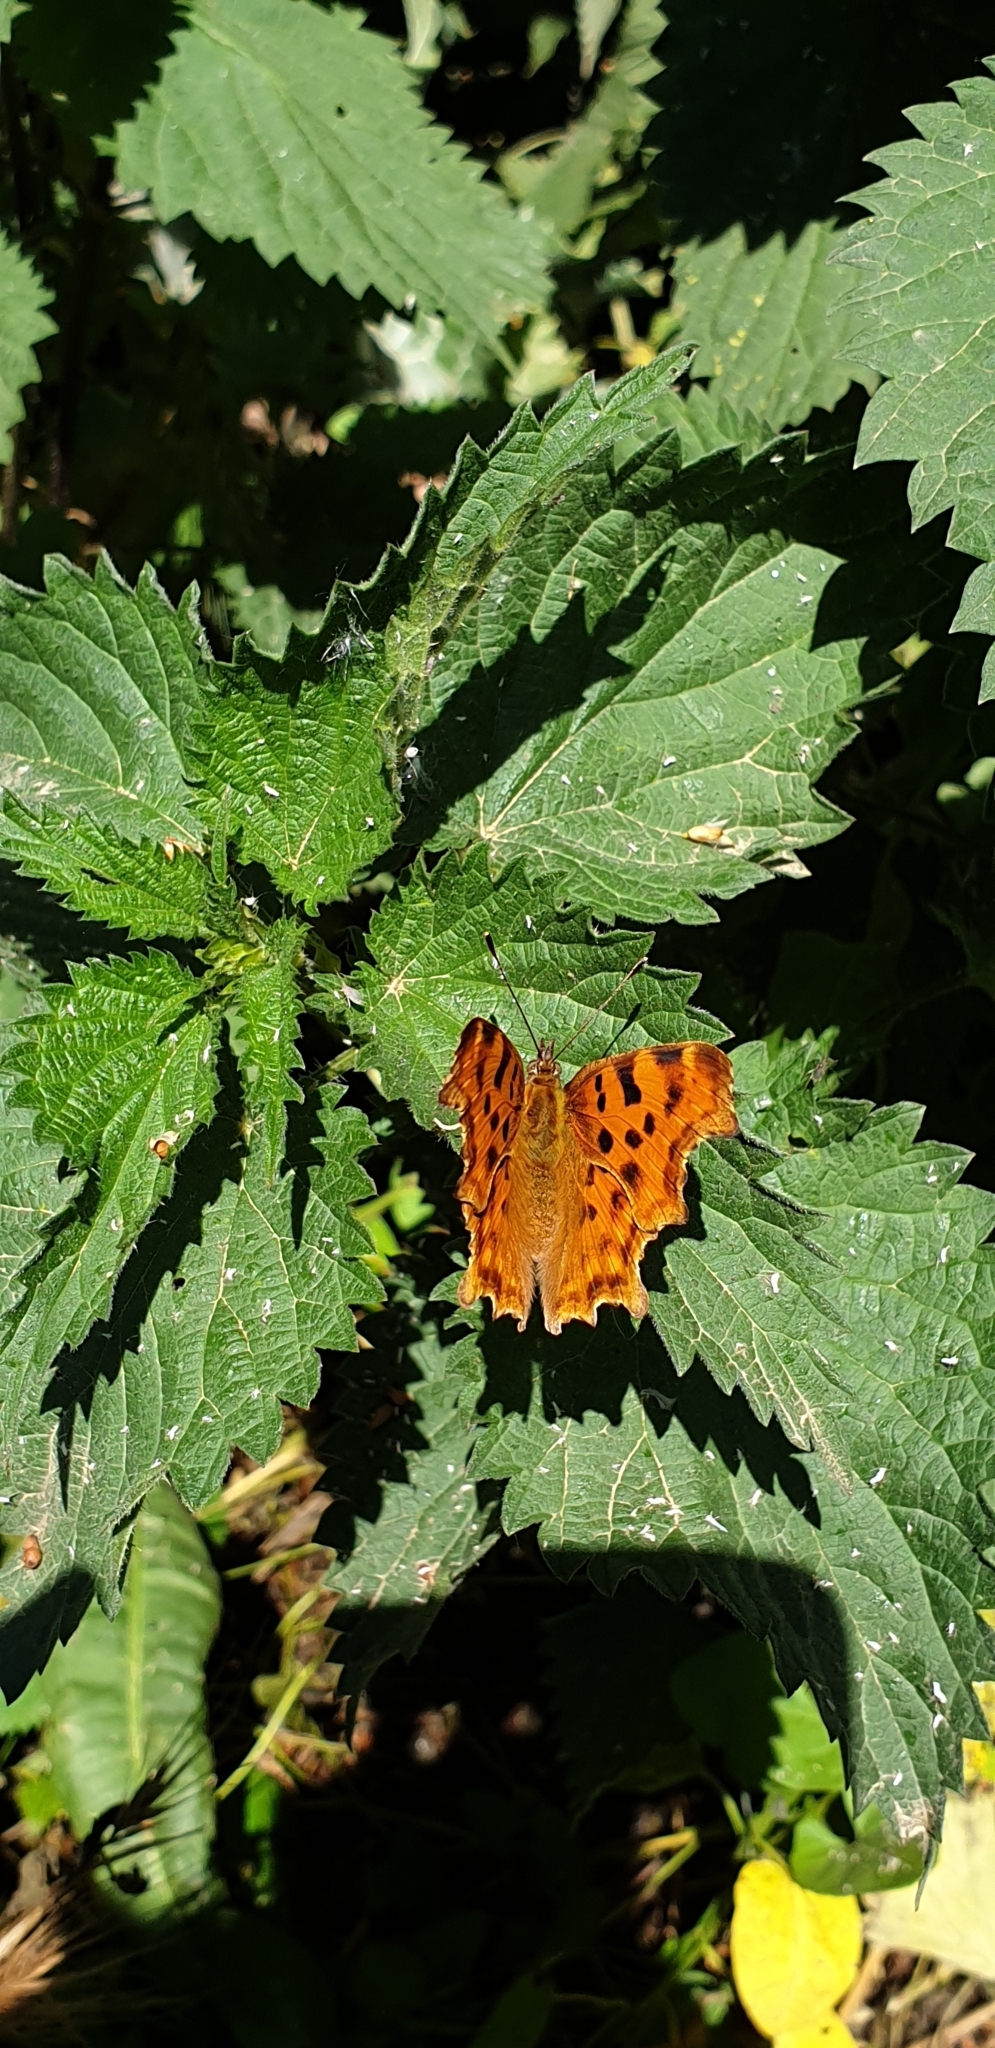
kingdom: Animalia
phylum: Arthropoda
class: Insecta
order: Lepidoptera
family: Nymphalidae
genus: Polygonia
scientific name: Polygonia c-album
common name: Comma
